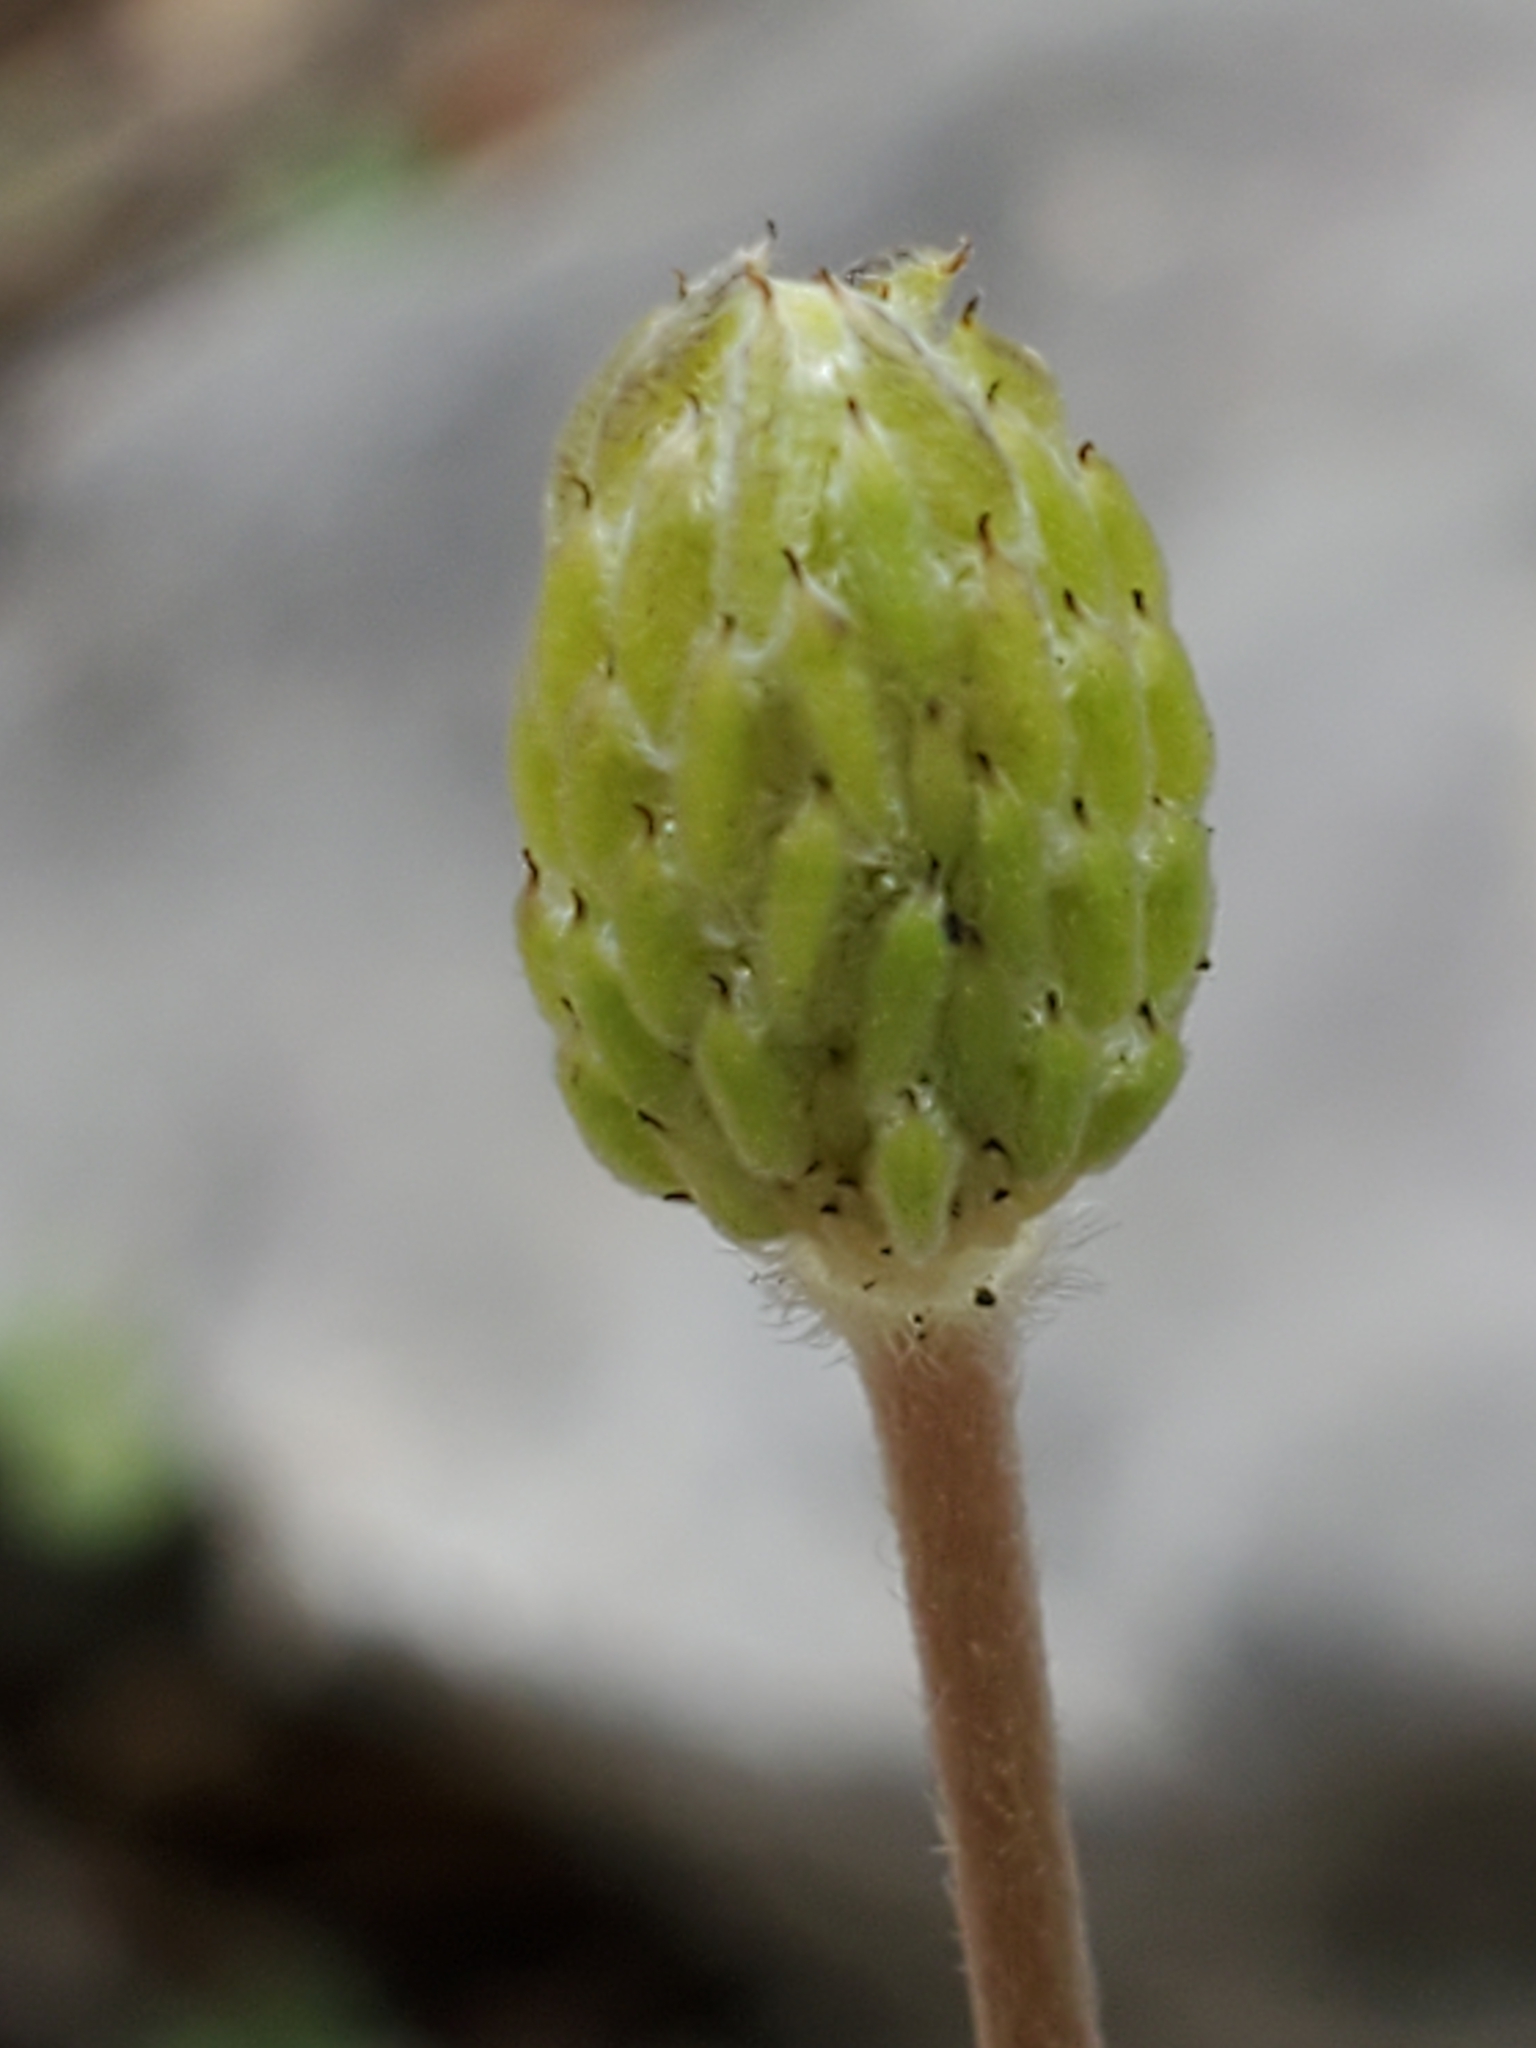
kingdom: Plantae
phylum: Tracheophyta
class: Magnoliopsida
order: Ranunculales
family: Ranunculaceae
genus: Anemone
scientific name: Anemone berlandieri
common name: Ten-petal anemone
